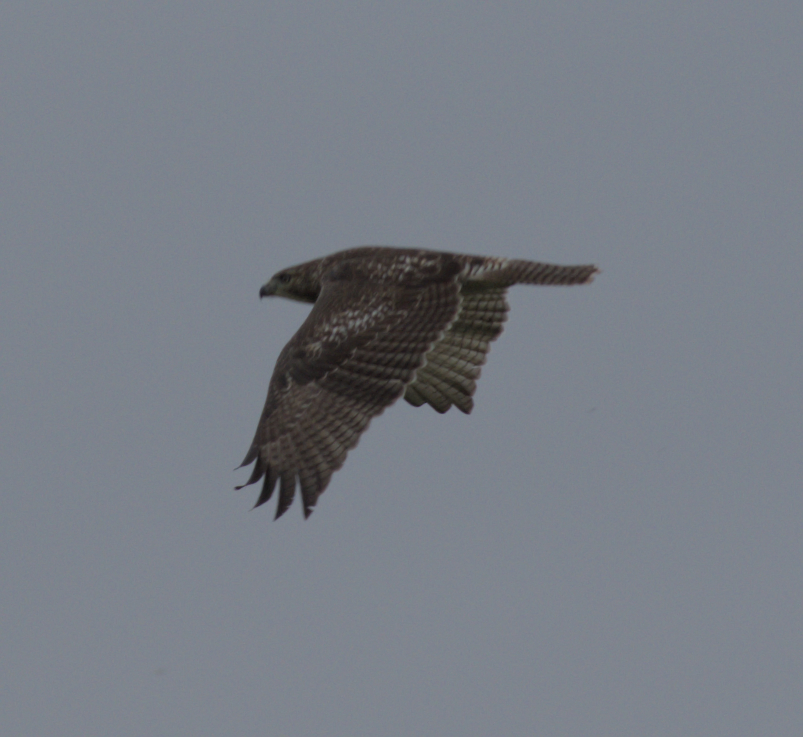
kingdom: Animalia
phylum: Chordata
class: Aves
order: Accipitriformes
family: Accipitridae
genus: Buteo
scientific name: Buteo jamaicensis
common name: Red-tailed hawk
